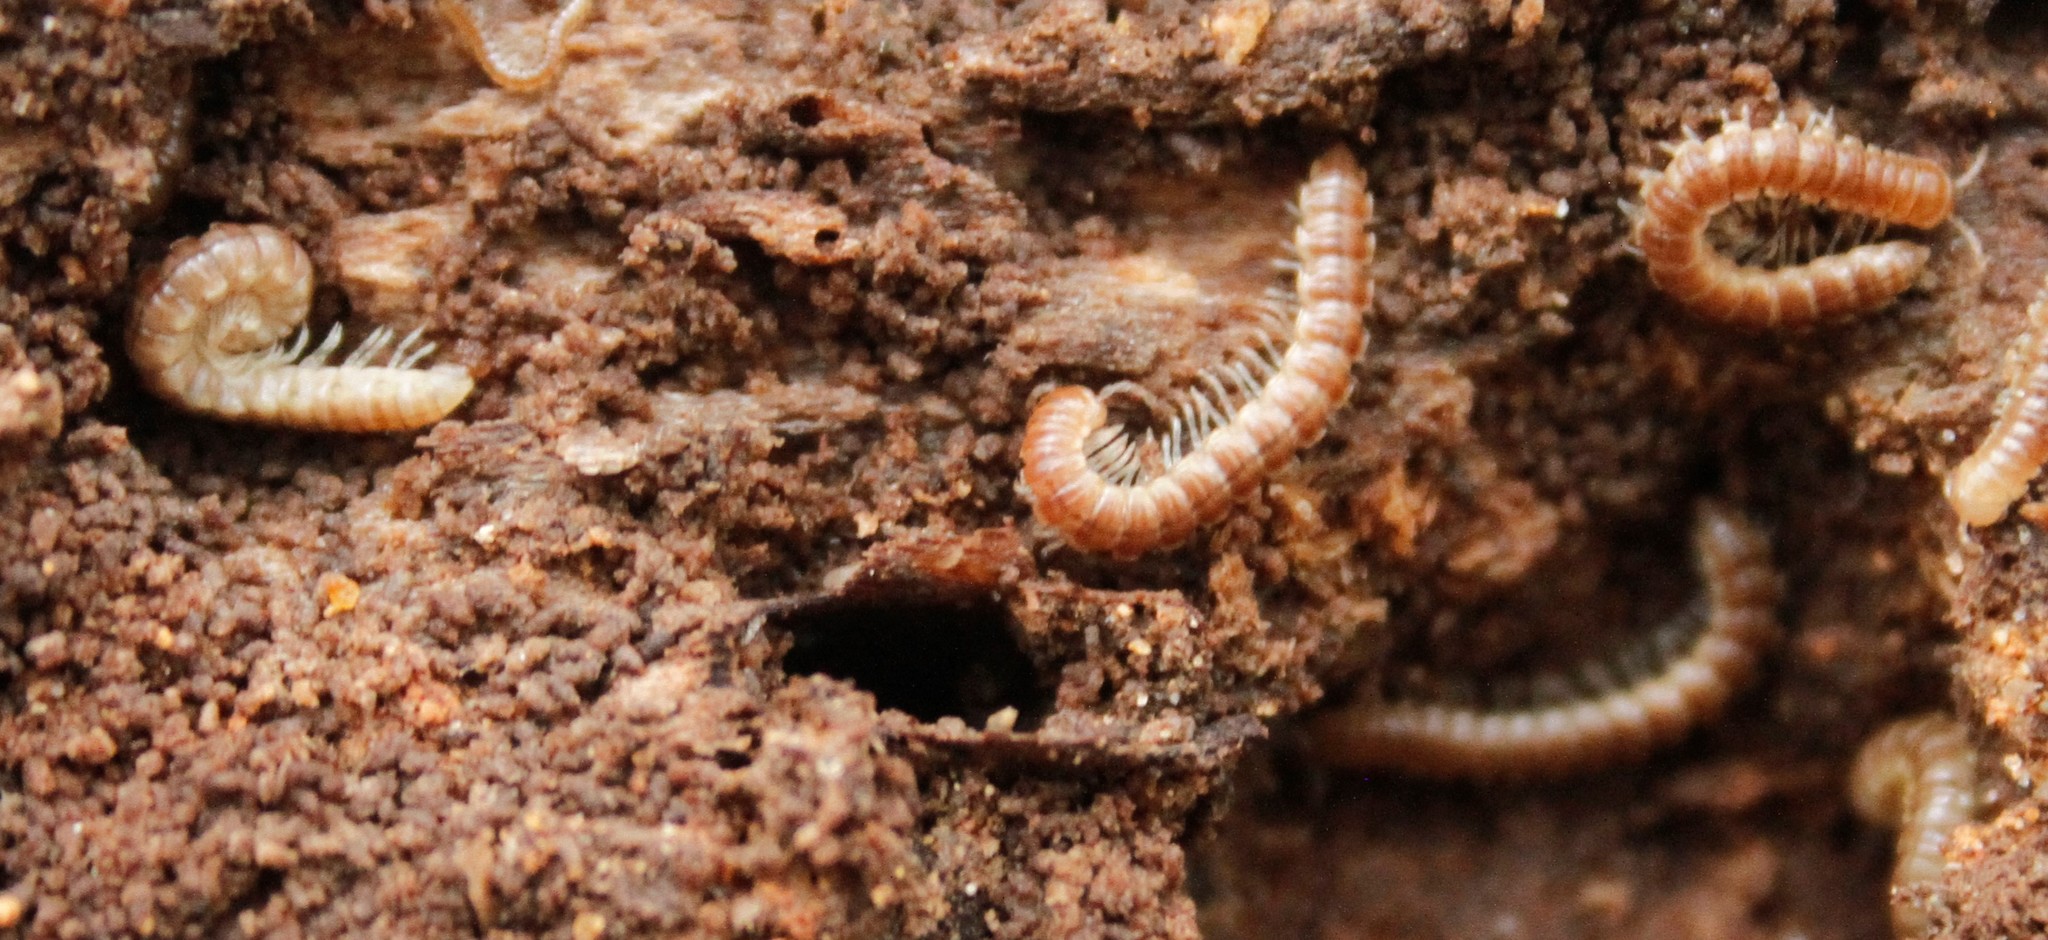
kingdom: Animalia
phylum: Arthropoda
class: Diplopoda
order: Polydesmida
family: Paradoxosomatidae
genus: Oxidus
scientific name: Oxidus gracilis
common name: Greenhouse millipede
